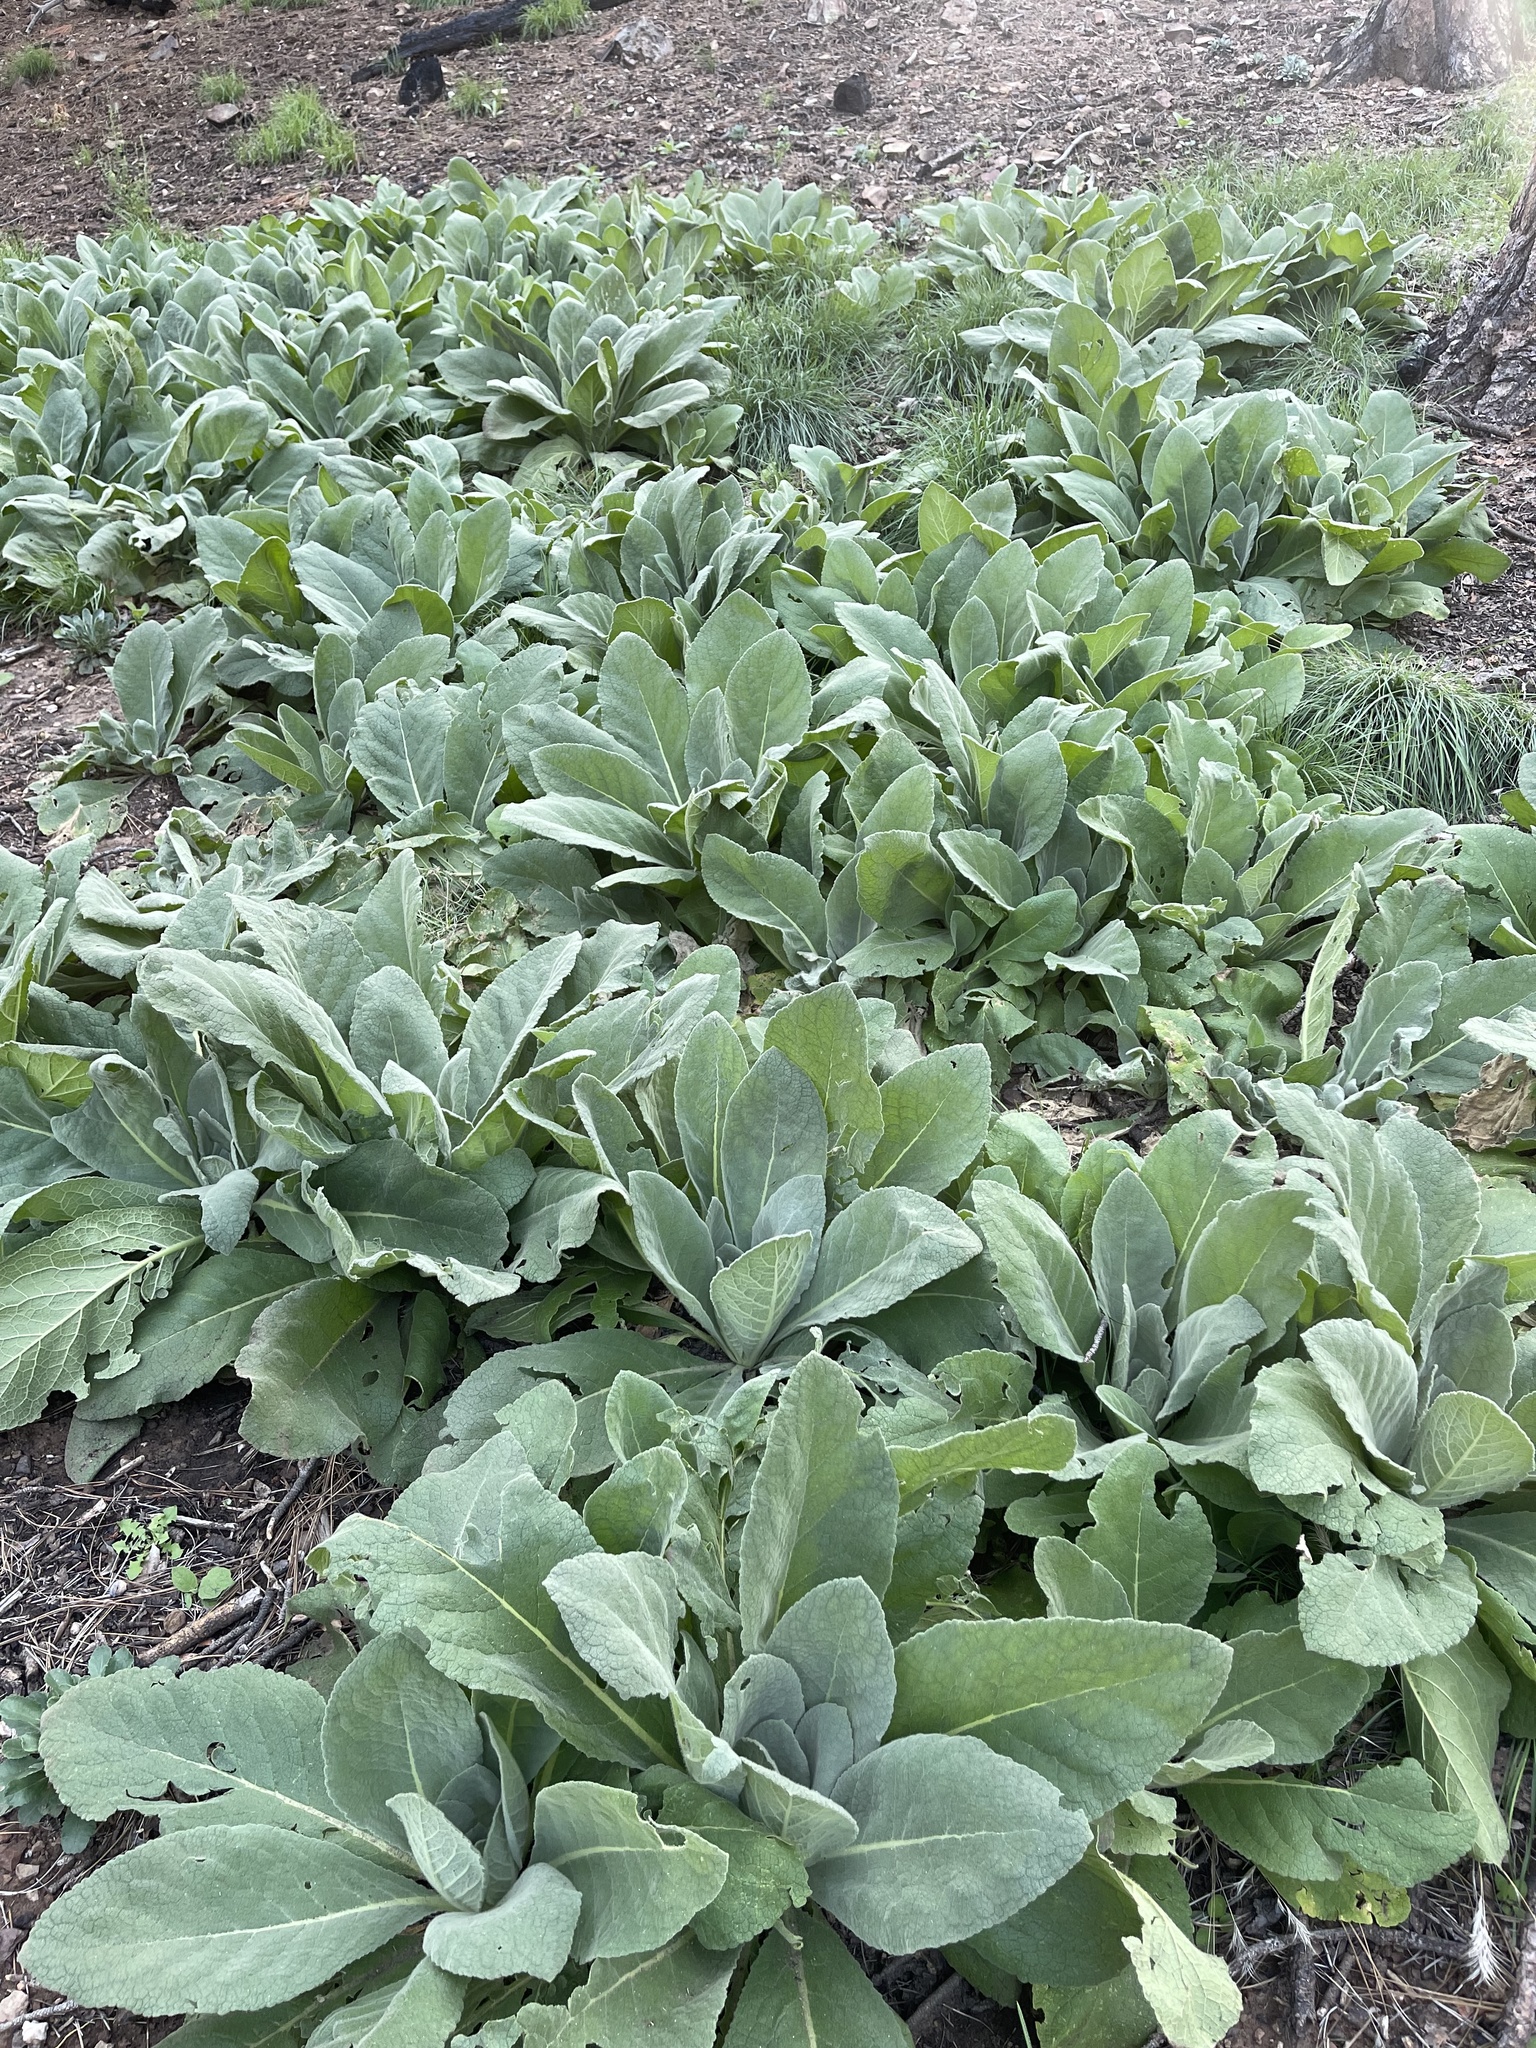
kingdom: Plantae
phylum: Tracheophyta
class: Magnoliopsida
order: Lamiales
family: Scrophulariaceae
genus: Verbascum
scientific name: Verbascum thapsus
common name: Common mullein
